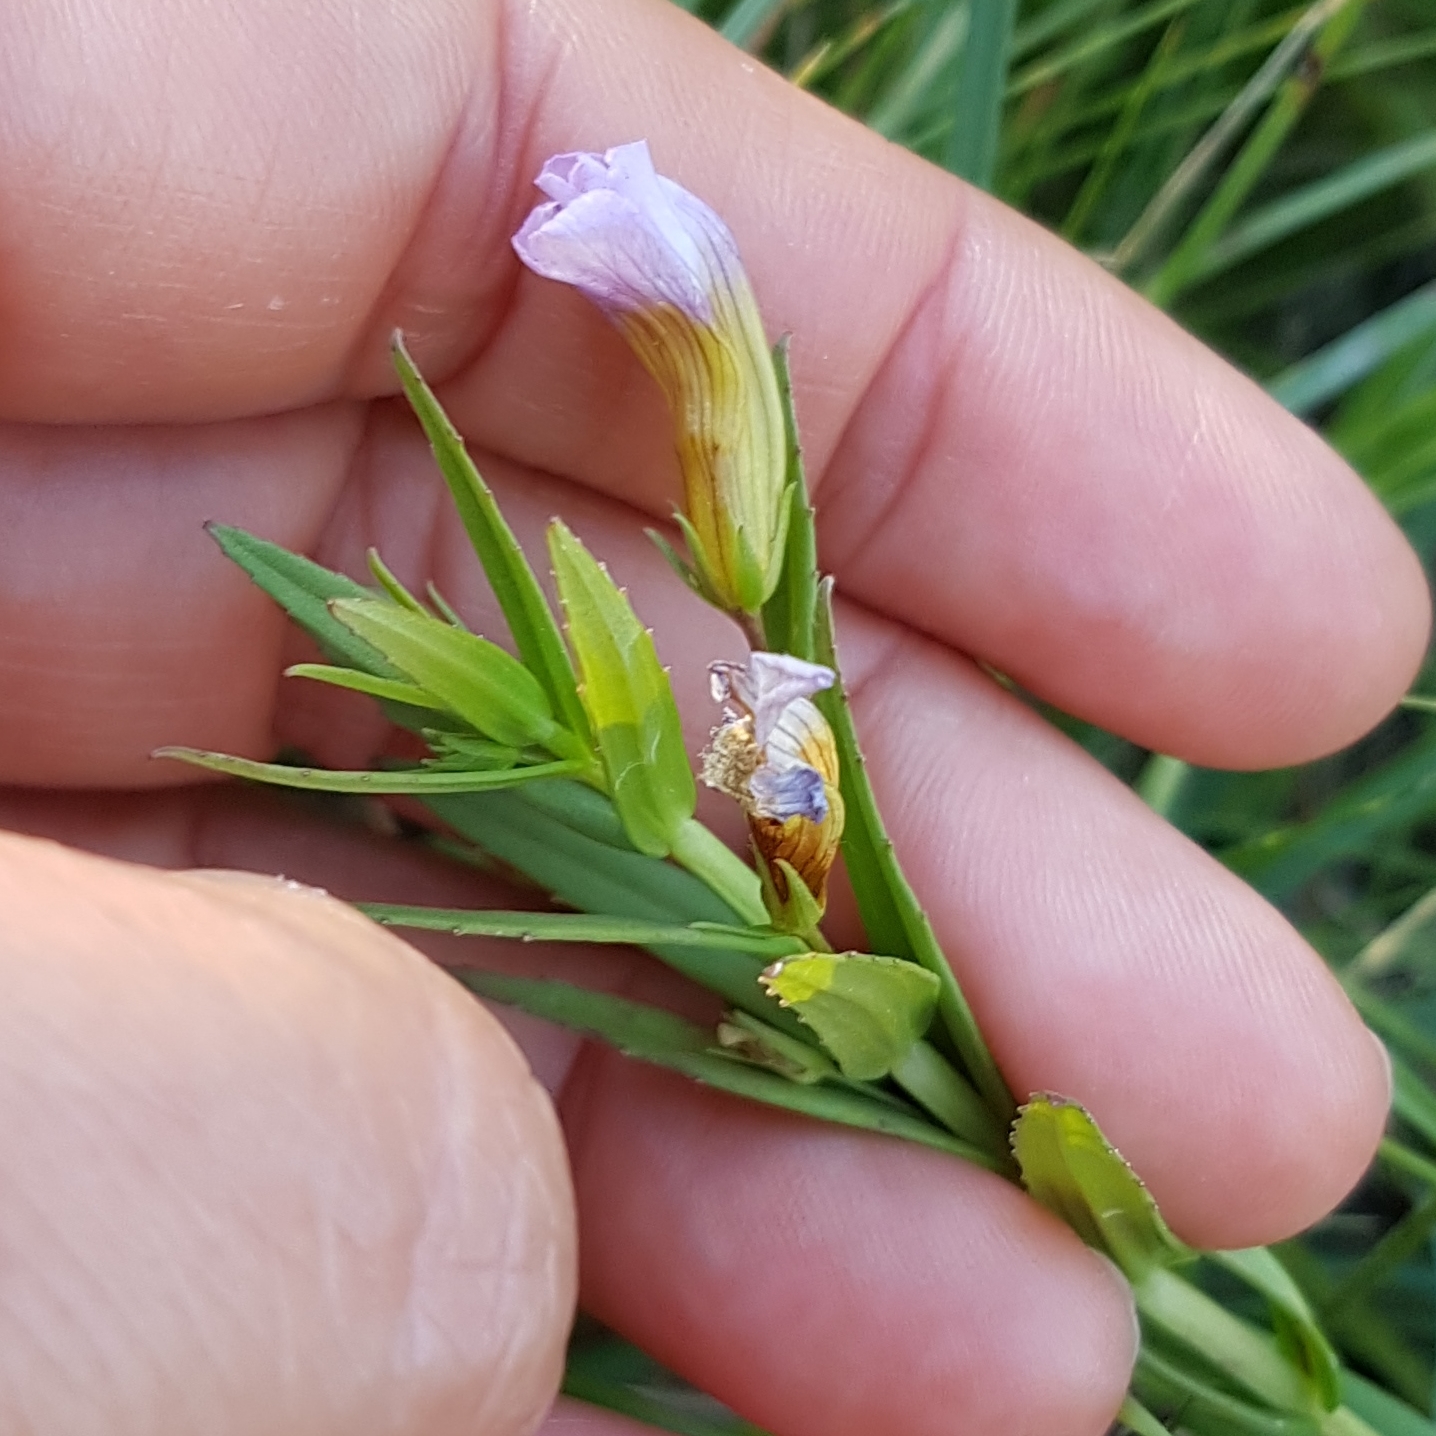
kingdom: Plantae
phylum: Tracheophyta
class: Magnoliopsida
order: Lamiales
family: Plantaginaceae
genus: Gratiola
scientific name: Gratiola officinalis
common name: Gratiola
